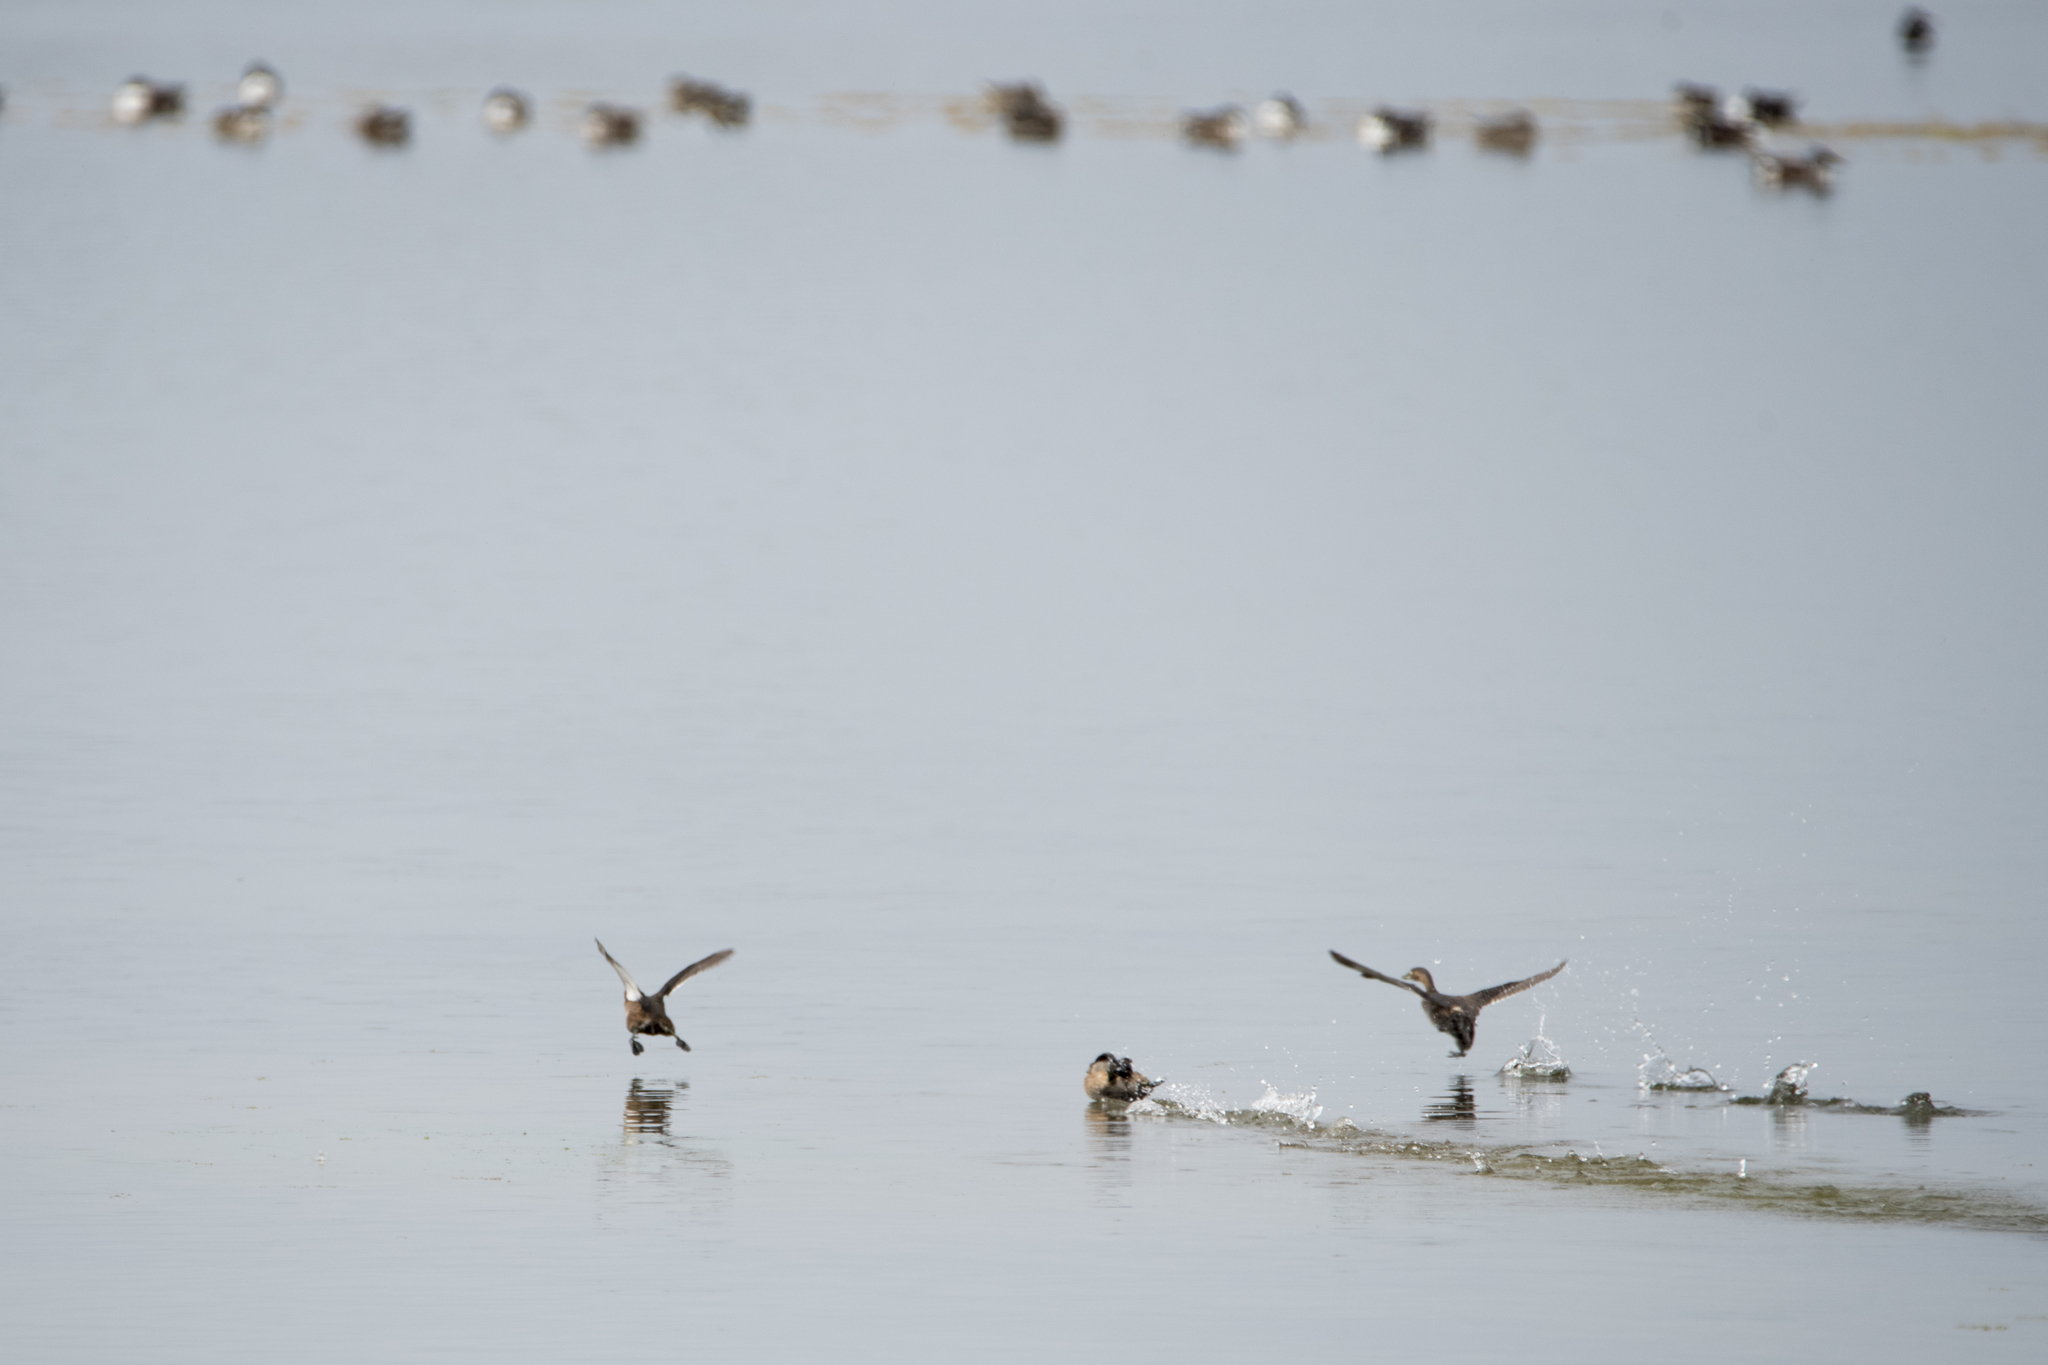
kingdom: Animalia
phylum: Chordata
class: Aves
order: Podicipediformes
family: Podicipedidae
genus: Tachybaptus
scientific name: Tachybaptus ruficollis
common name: Little grebe
